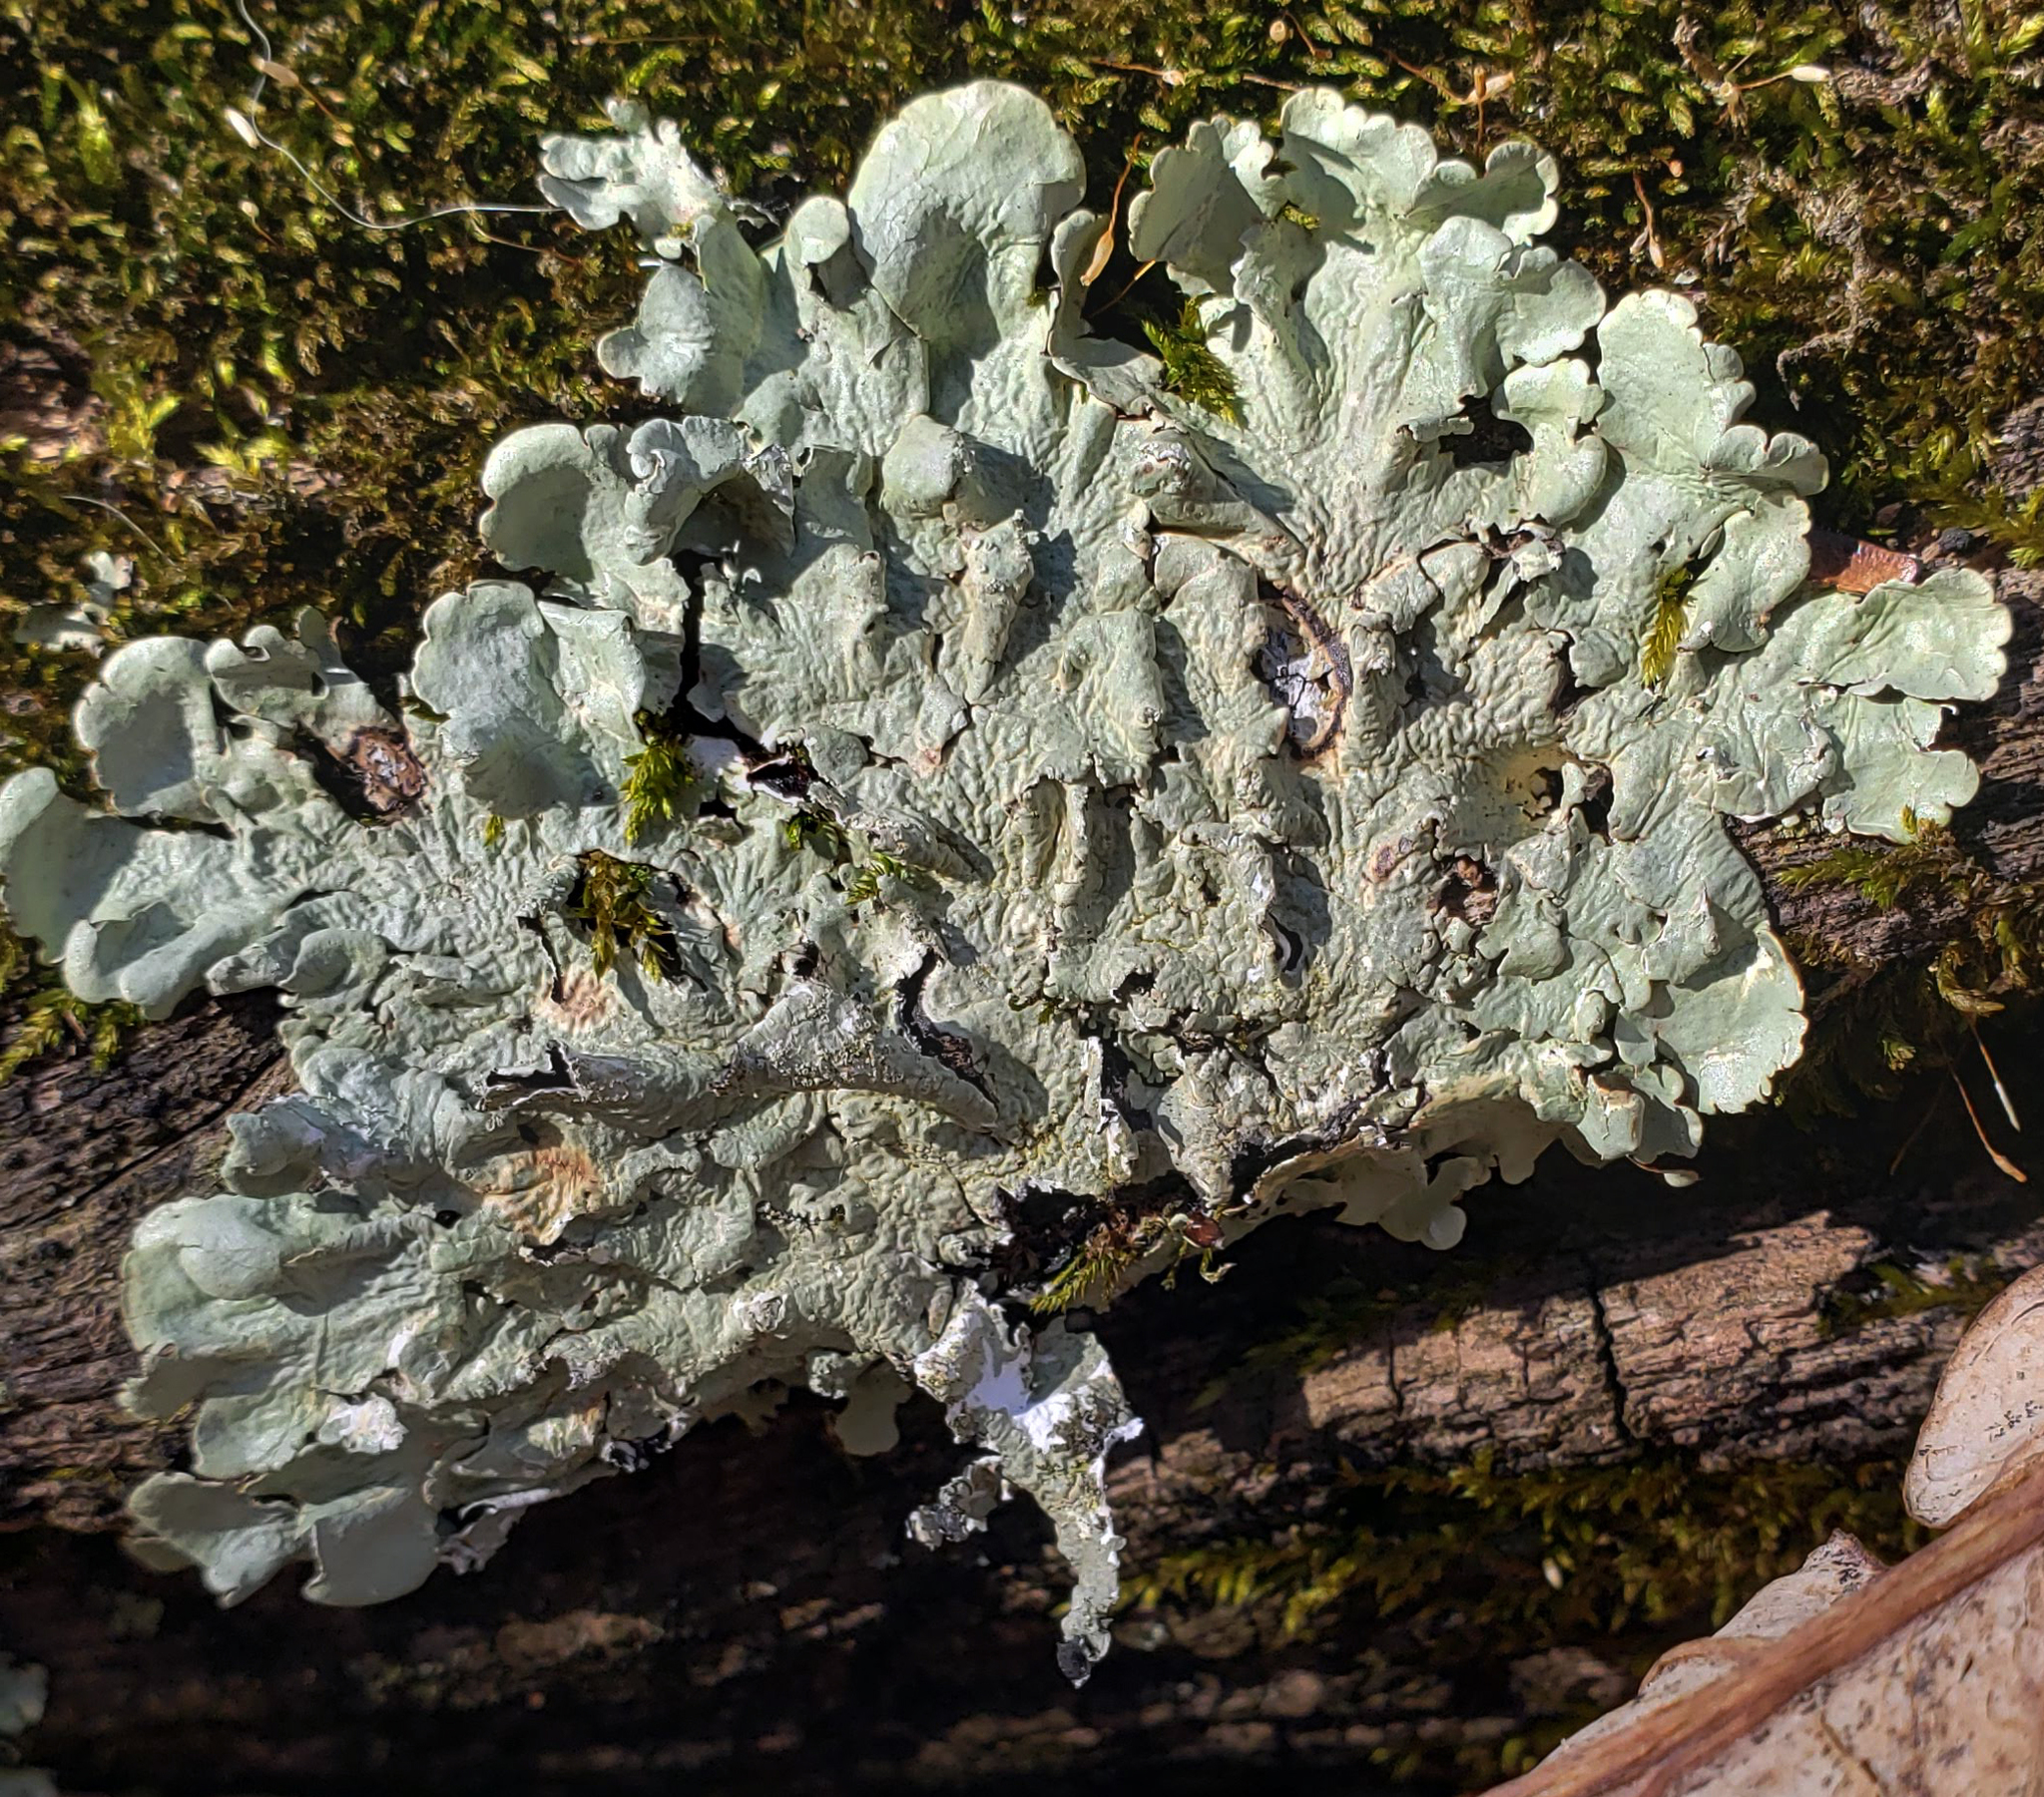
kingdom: Fungi
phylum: Ascomycota
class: Lecanoromycetes
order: Lecanorales
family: Parmeliaceae
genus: Flavoparmelia
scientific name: Flavoparmelia caperata
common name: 40-mile per hour lichen
